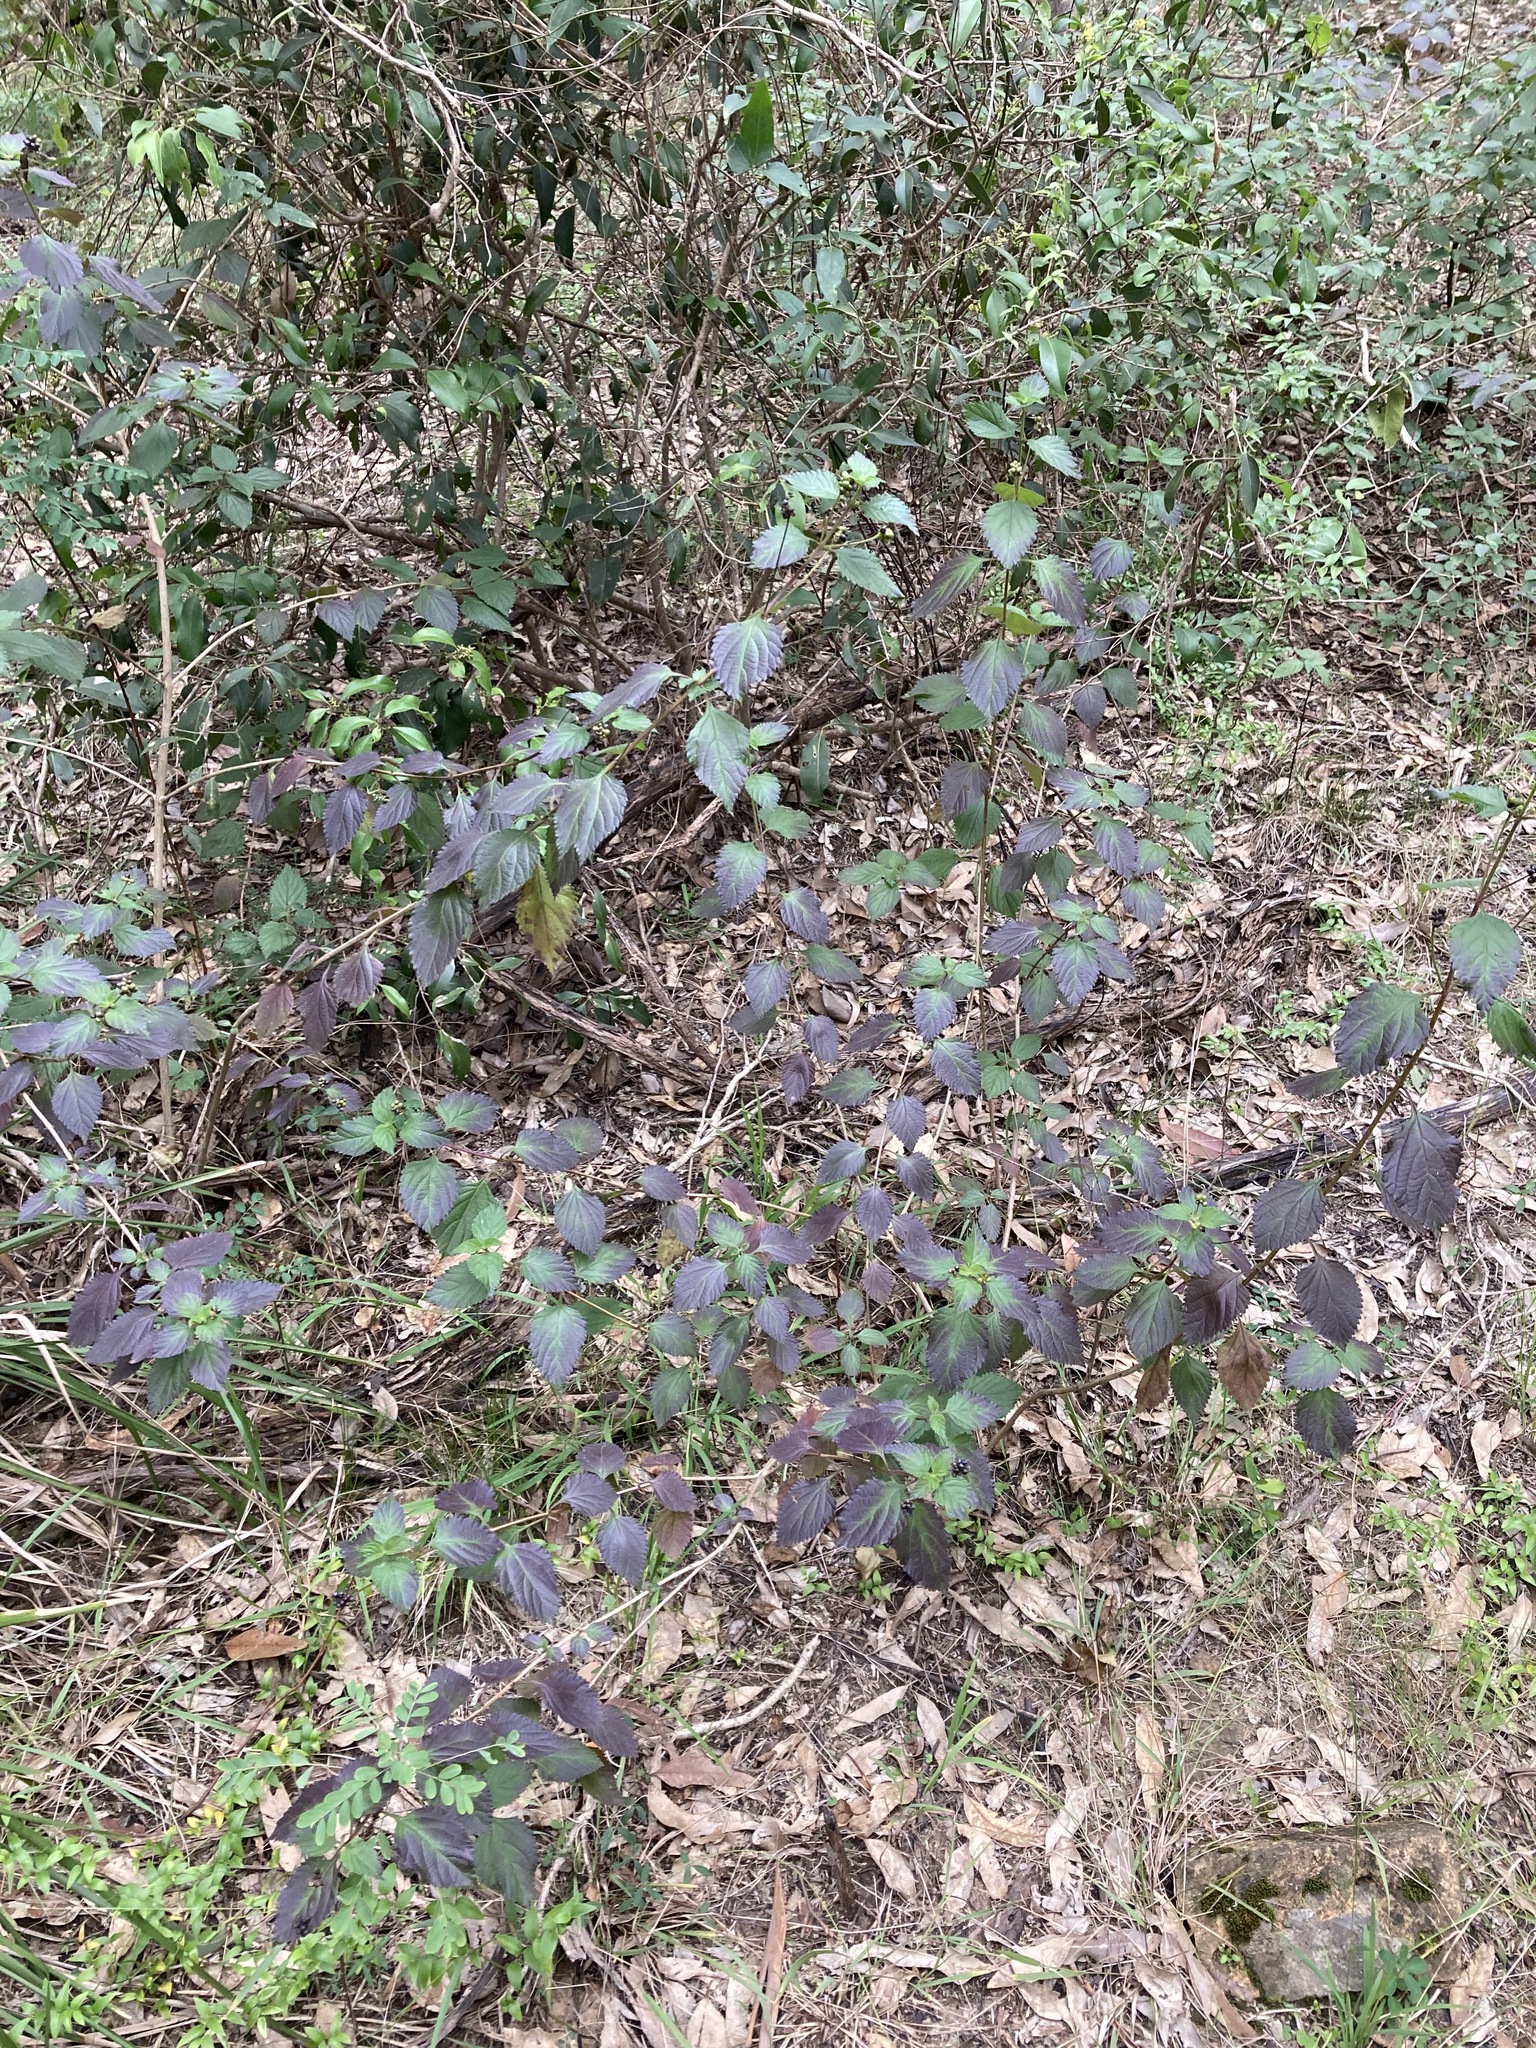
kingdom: Plantae
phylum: Tracheophyta
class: Magnoliopsida
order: Lamiales
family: Verbenaceae
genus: Lantana
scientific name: Lantana camara
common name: Lantana
